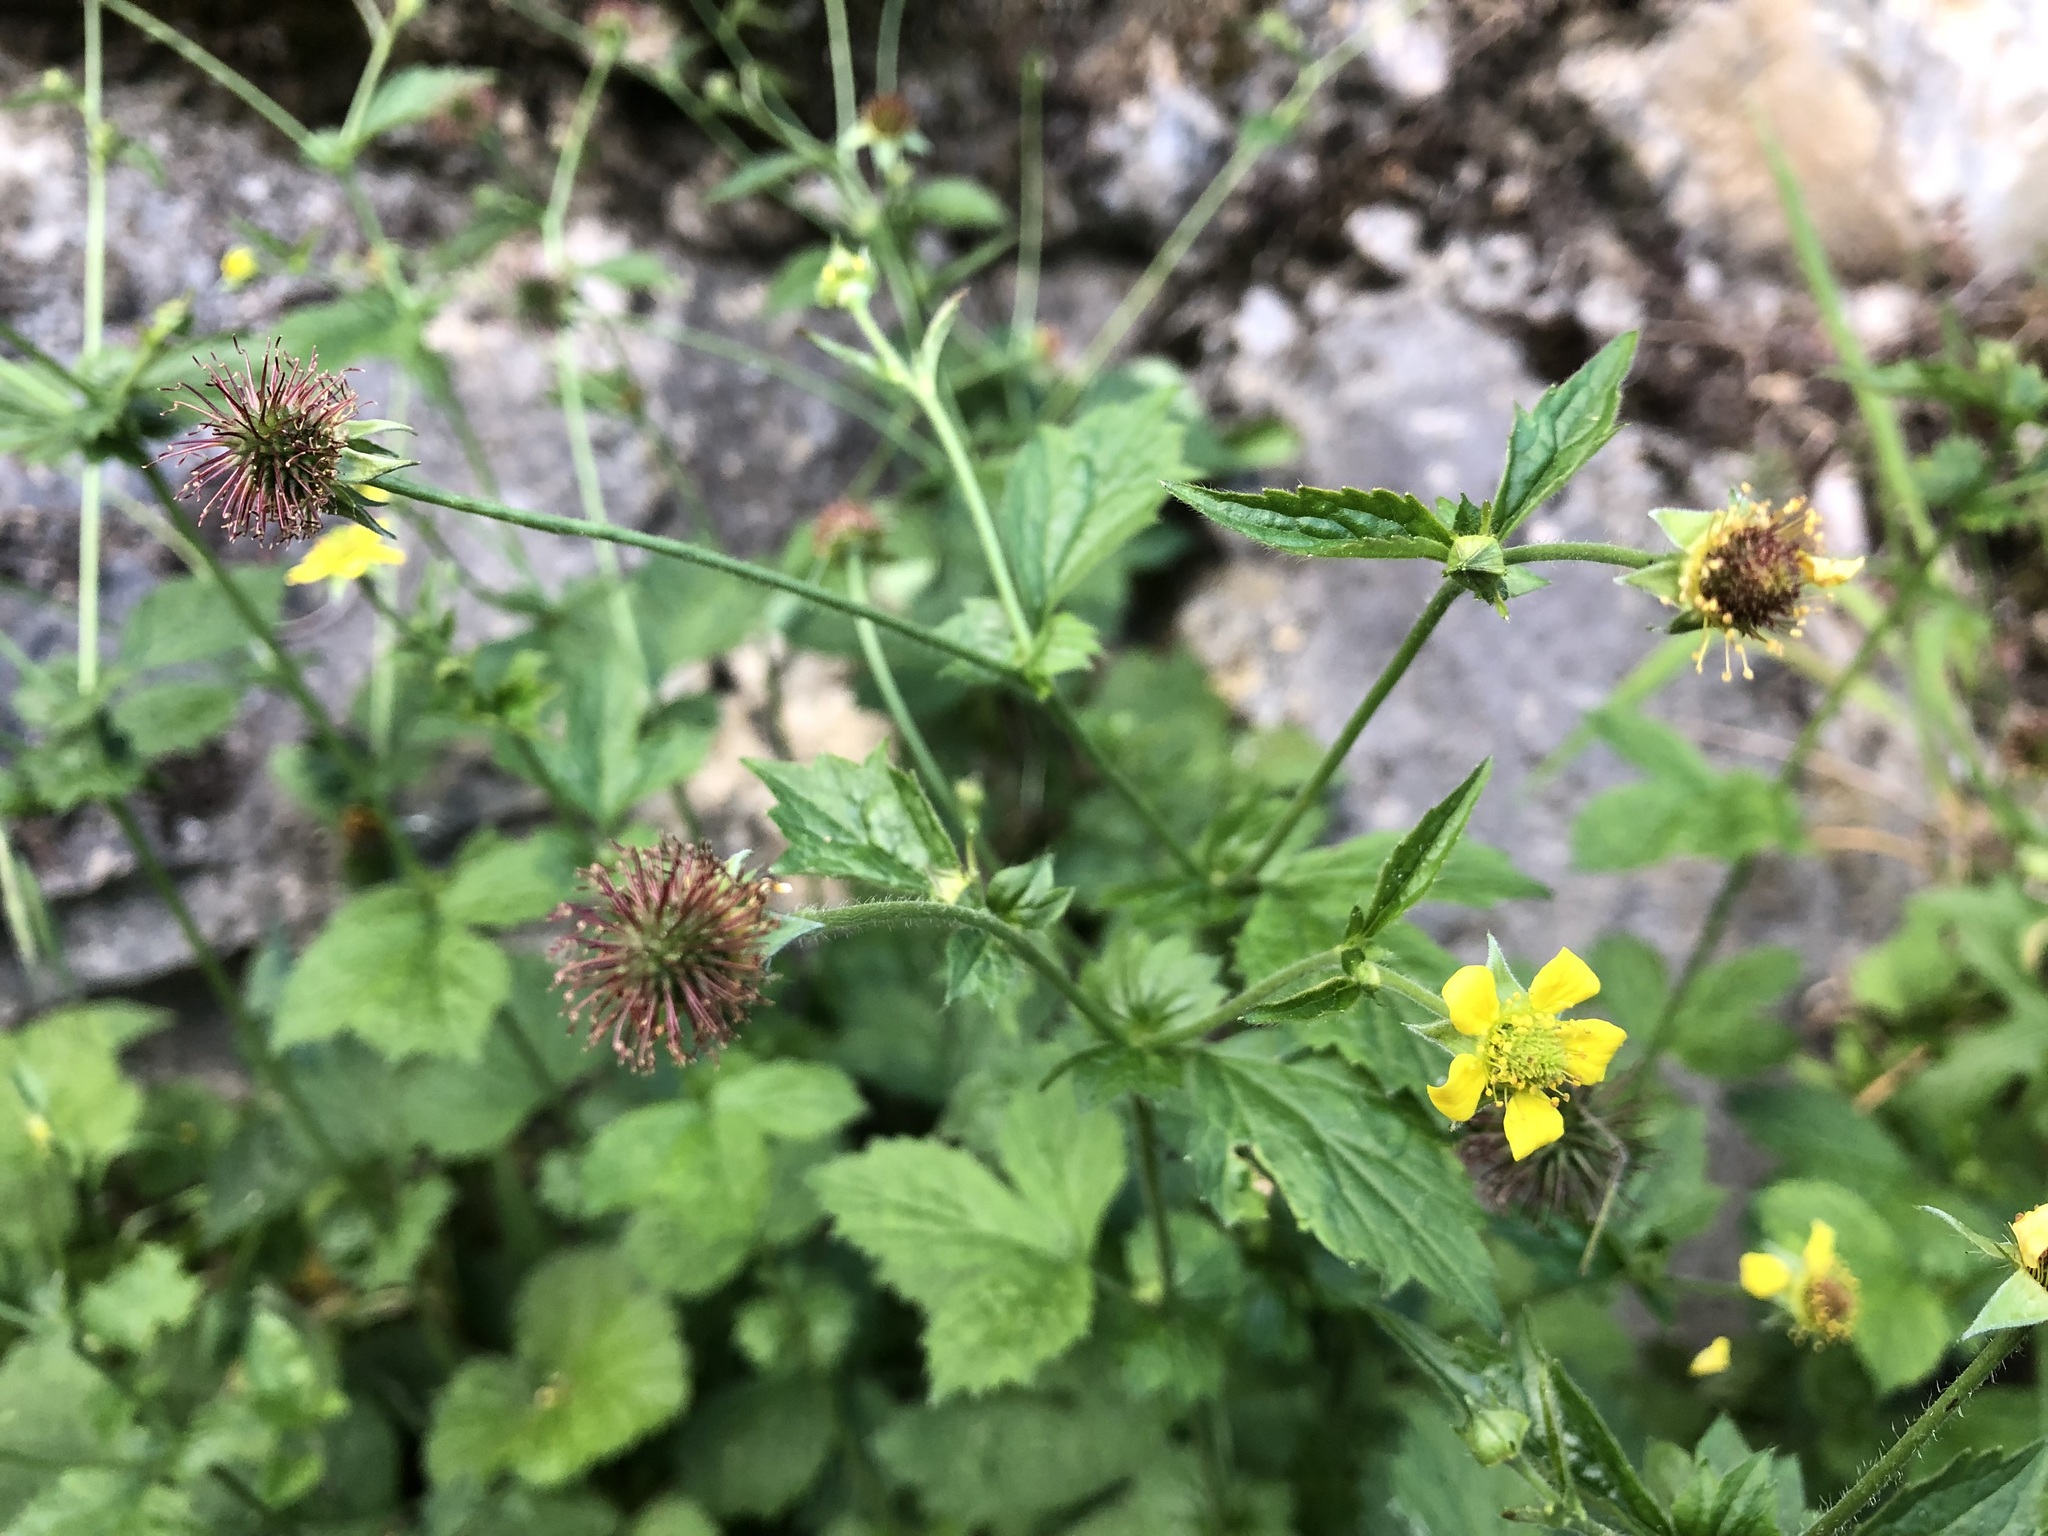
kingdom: Plantae
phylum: Tracheophyta
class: Magnoliopsida
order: Rosales
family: Rosaceae
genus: Geum
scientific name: Geum urbanum
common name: Wood avens
